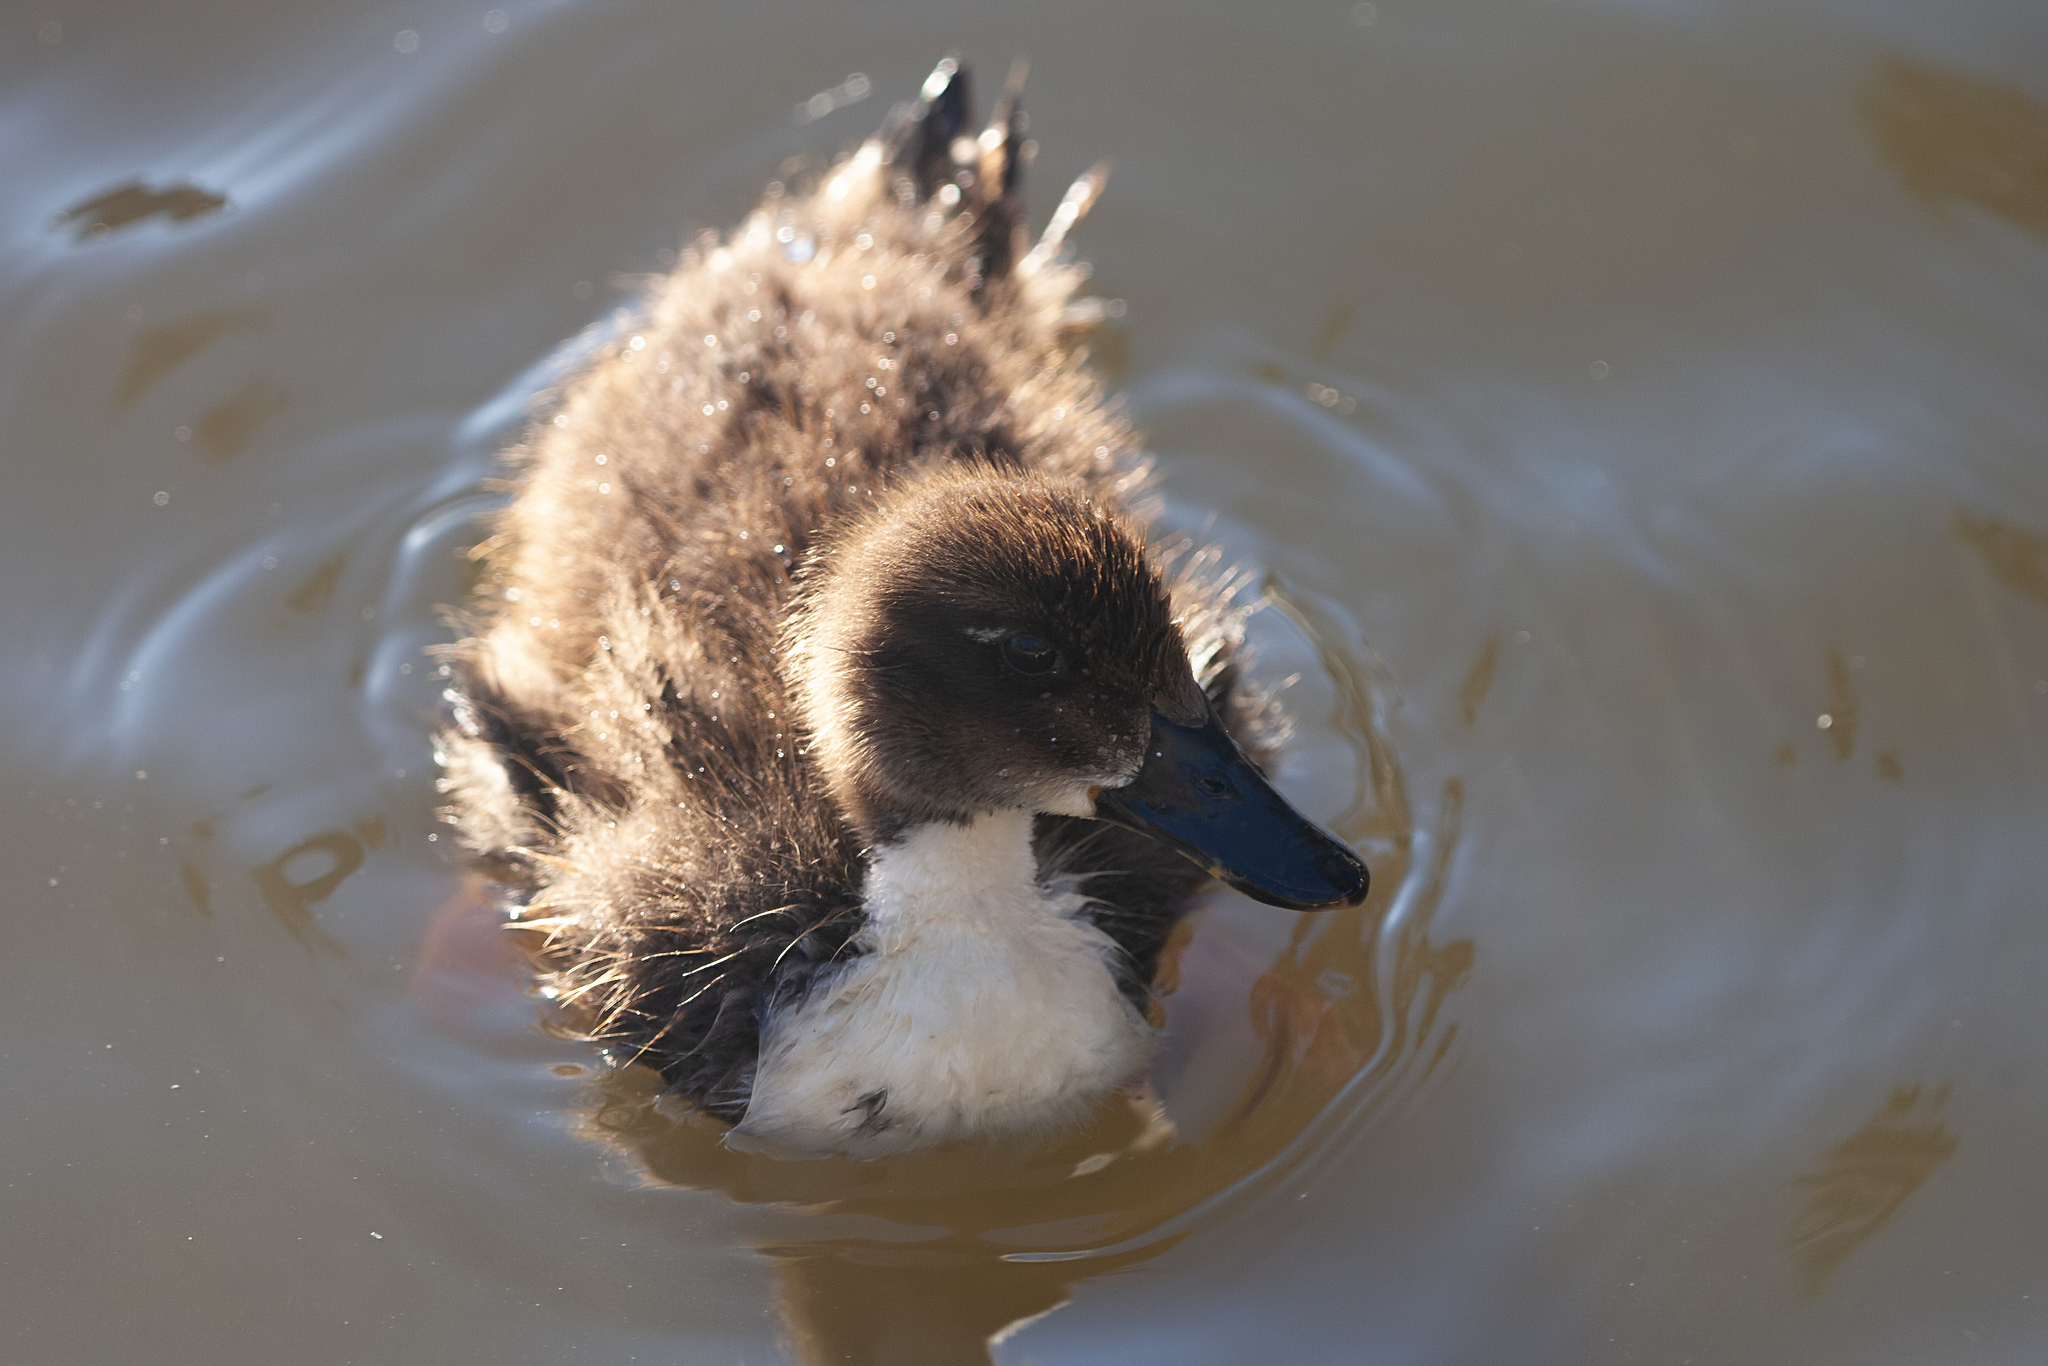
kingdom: Animalia
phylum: Chordata
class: Aves
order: Anseriformes
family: Anatidae
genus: Anas
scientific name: Anas platyrhynchos
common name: Mallard
